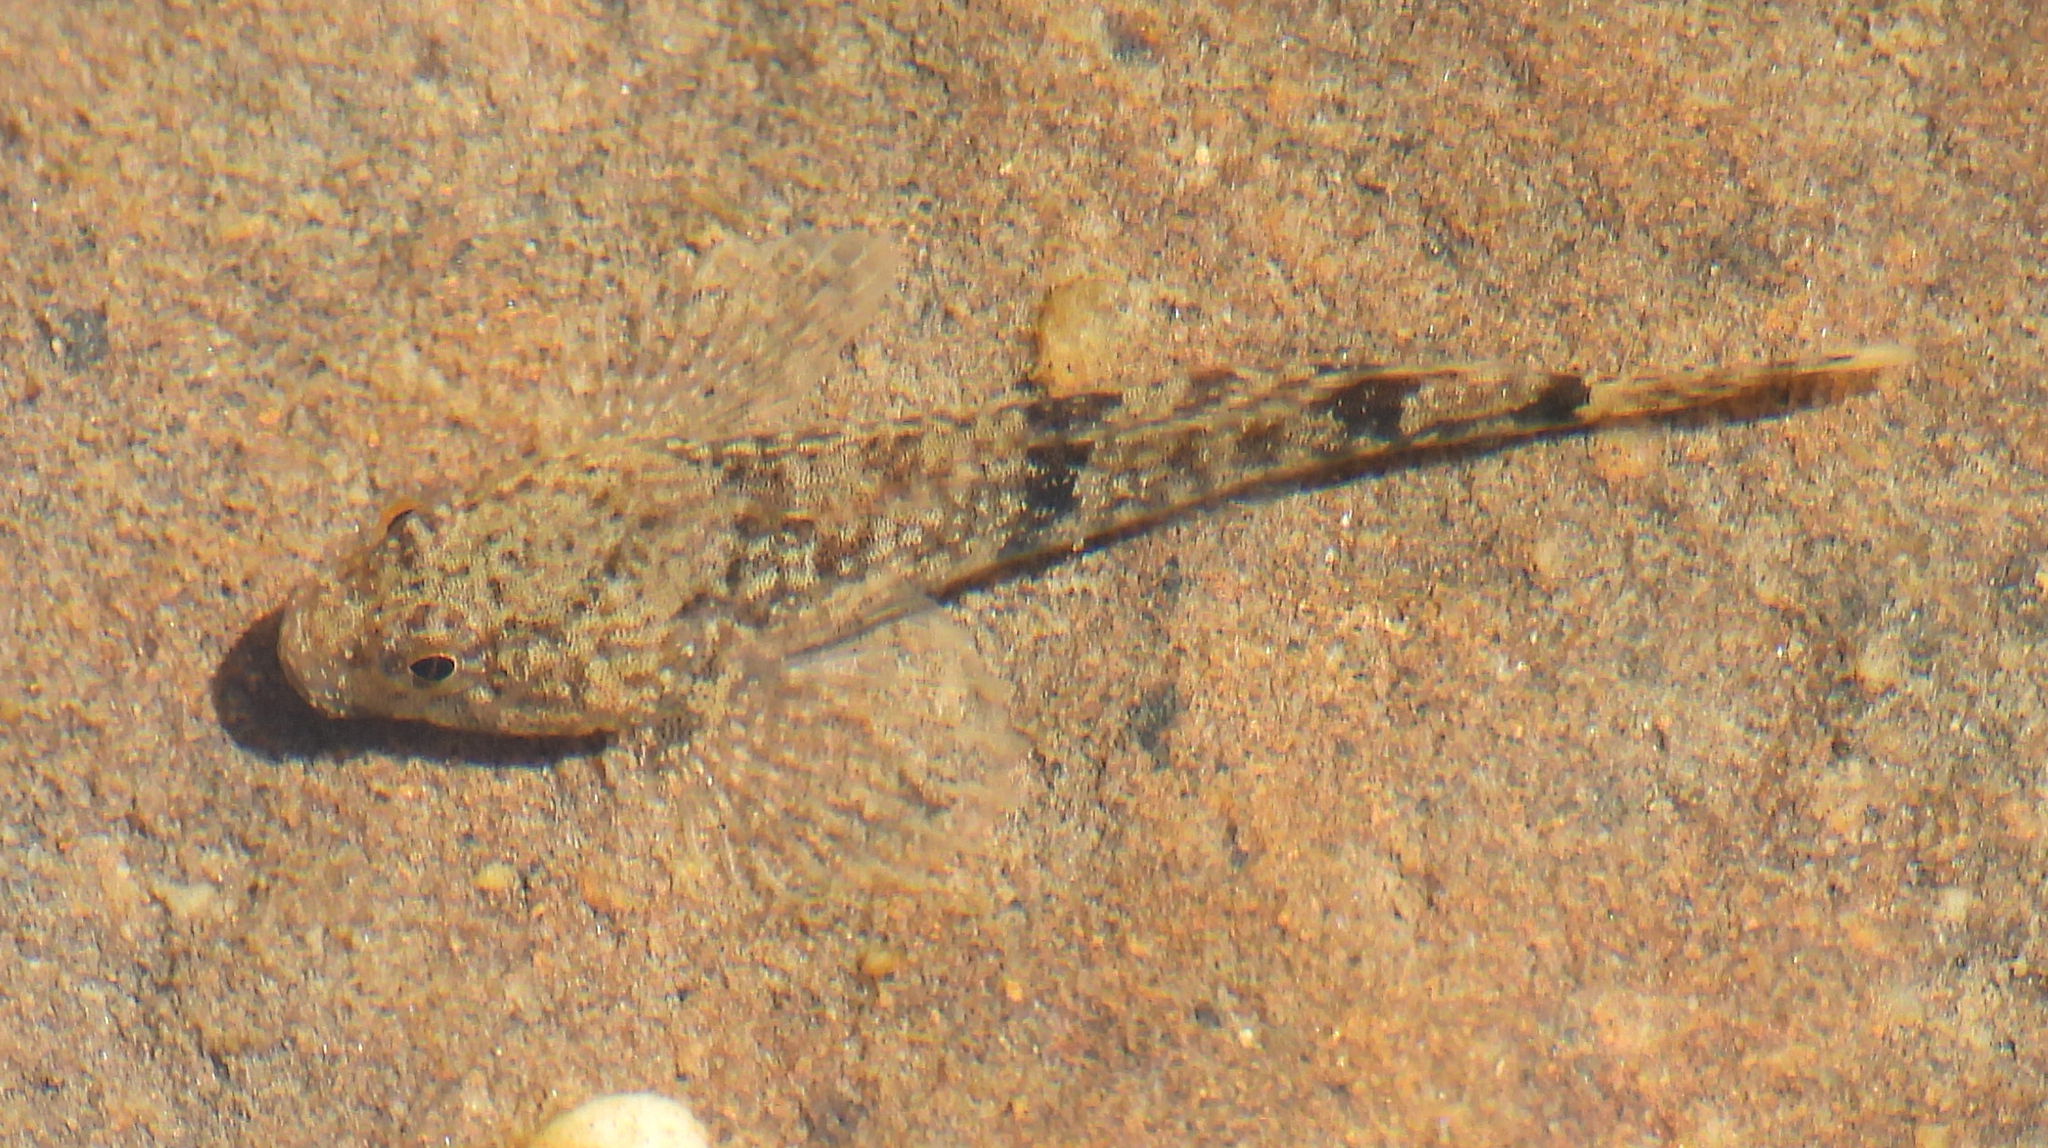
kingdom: Animalia
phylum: Chordata
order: Scorpaeniformes
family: Cottidae
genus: Cottus
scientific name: Cottus bairdii
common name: Mottled sculpin
